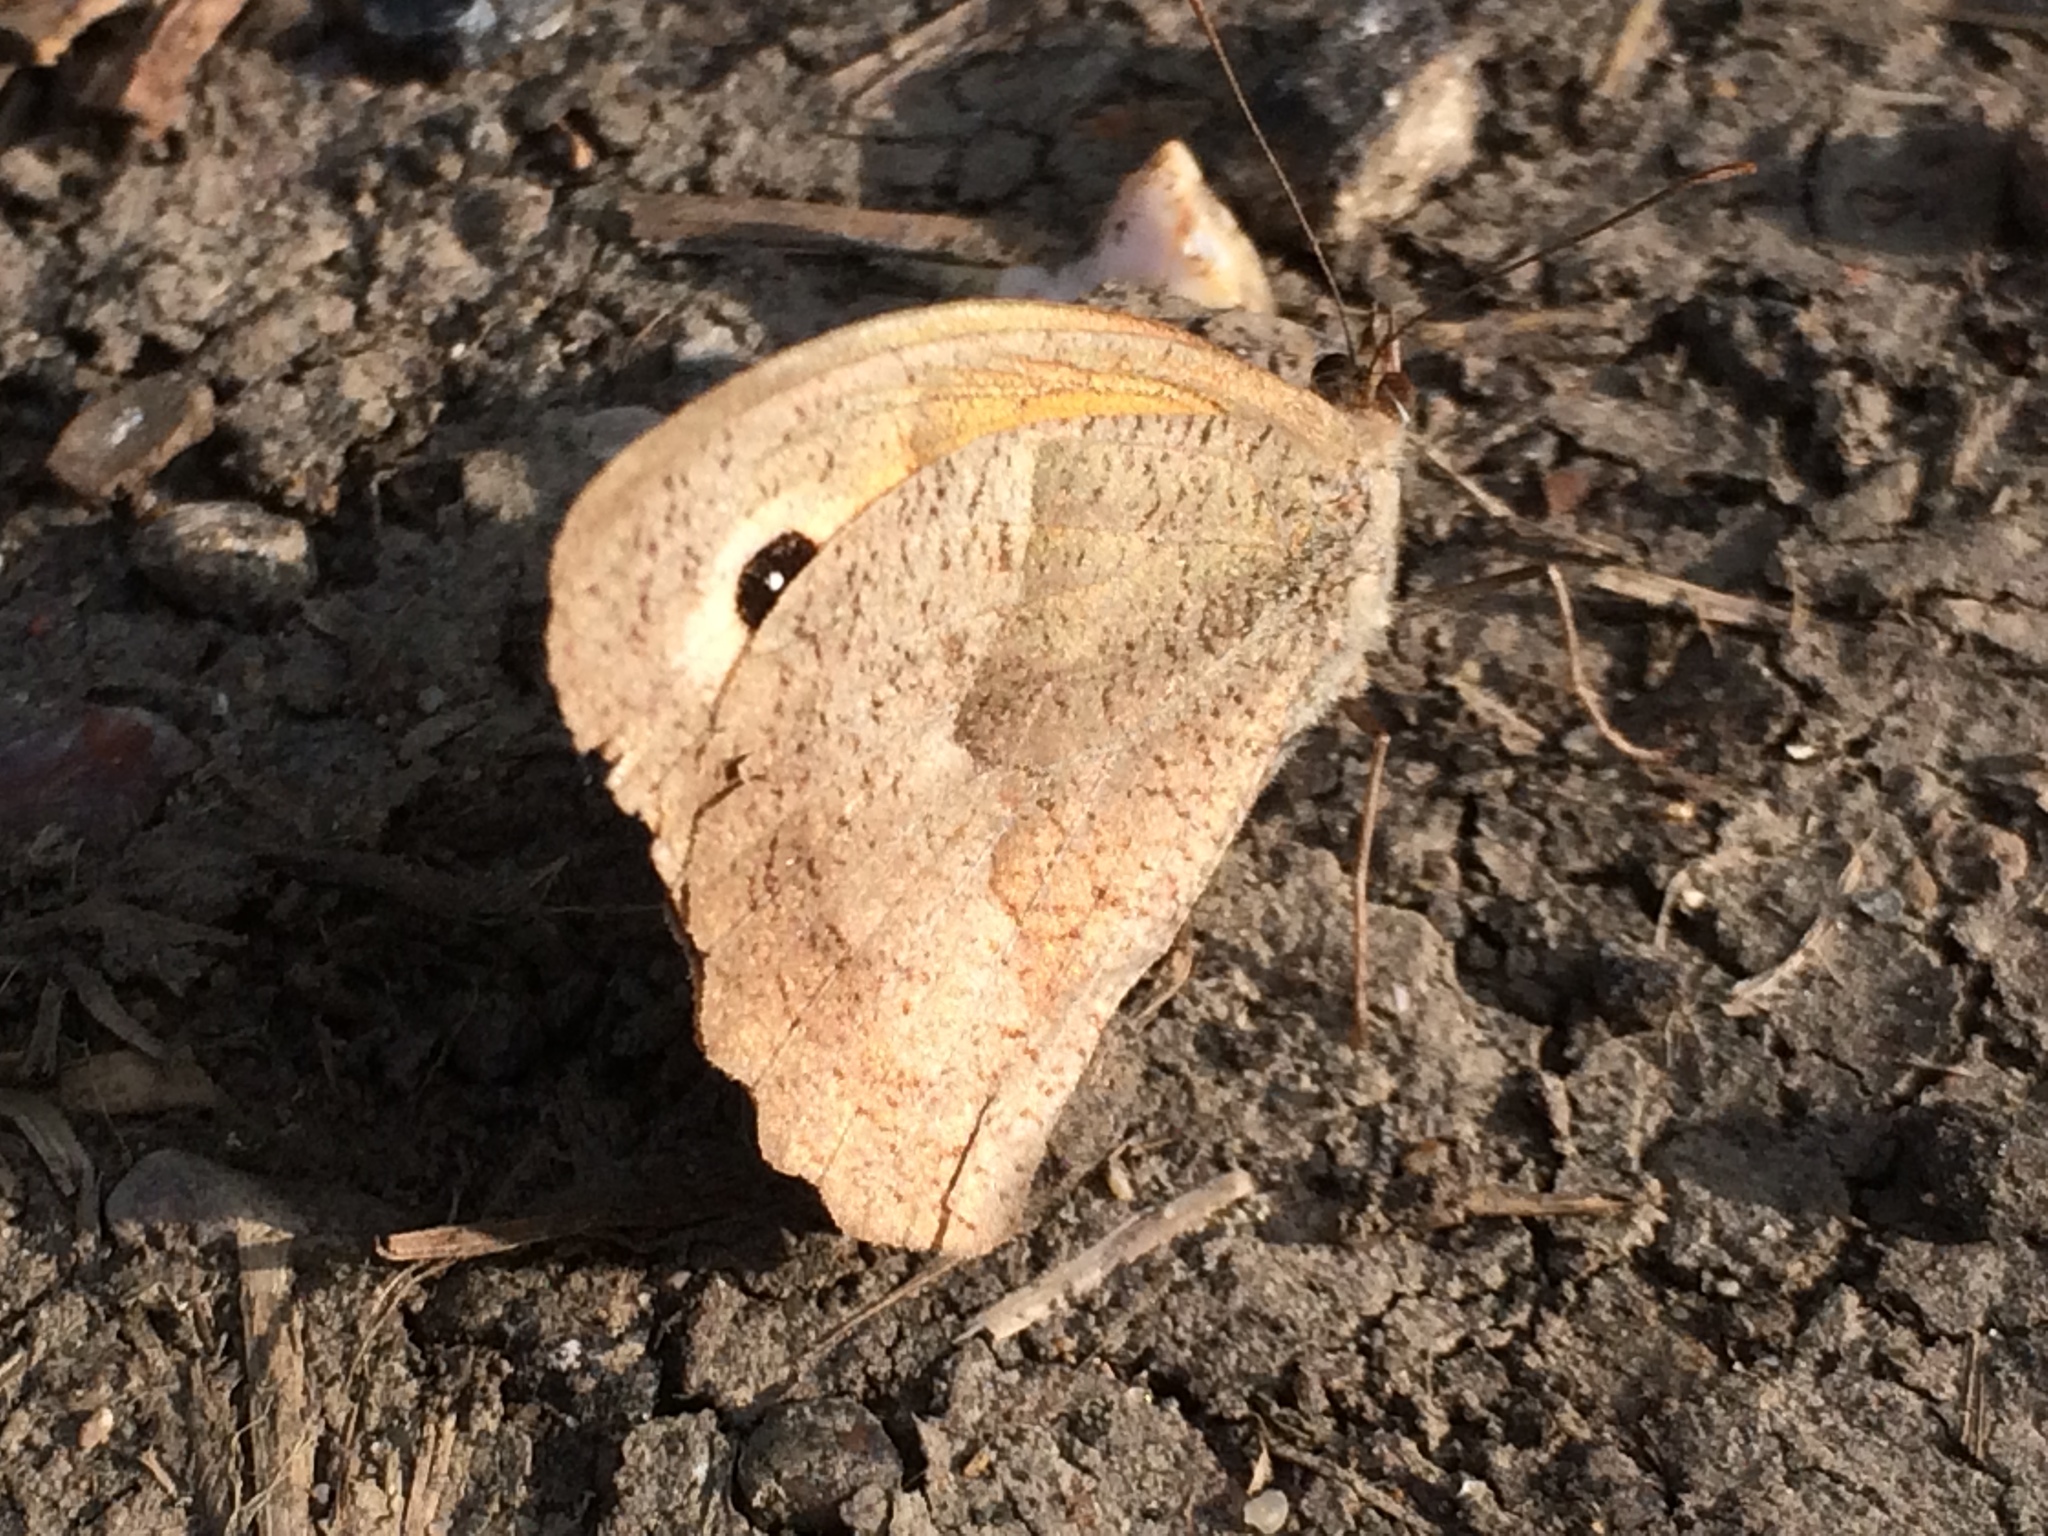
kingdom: Animalia
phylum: Arthropoda
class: Insecta
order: Lepidoptera
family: Nymphalidae
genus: Maniola
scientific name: Maniola jurtina
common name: Meadow brown
